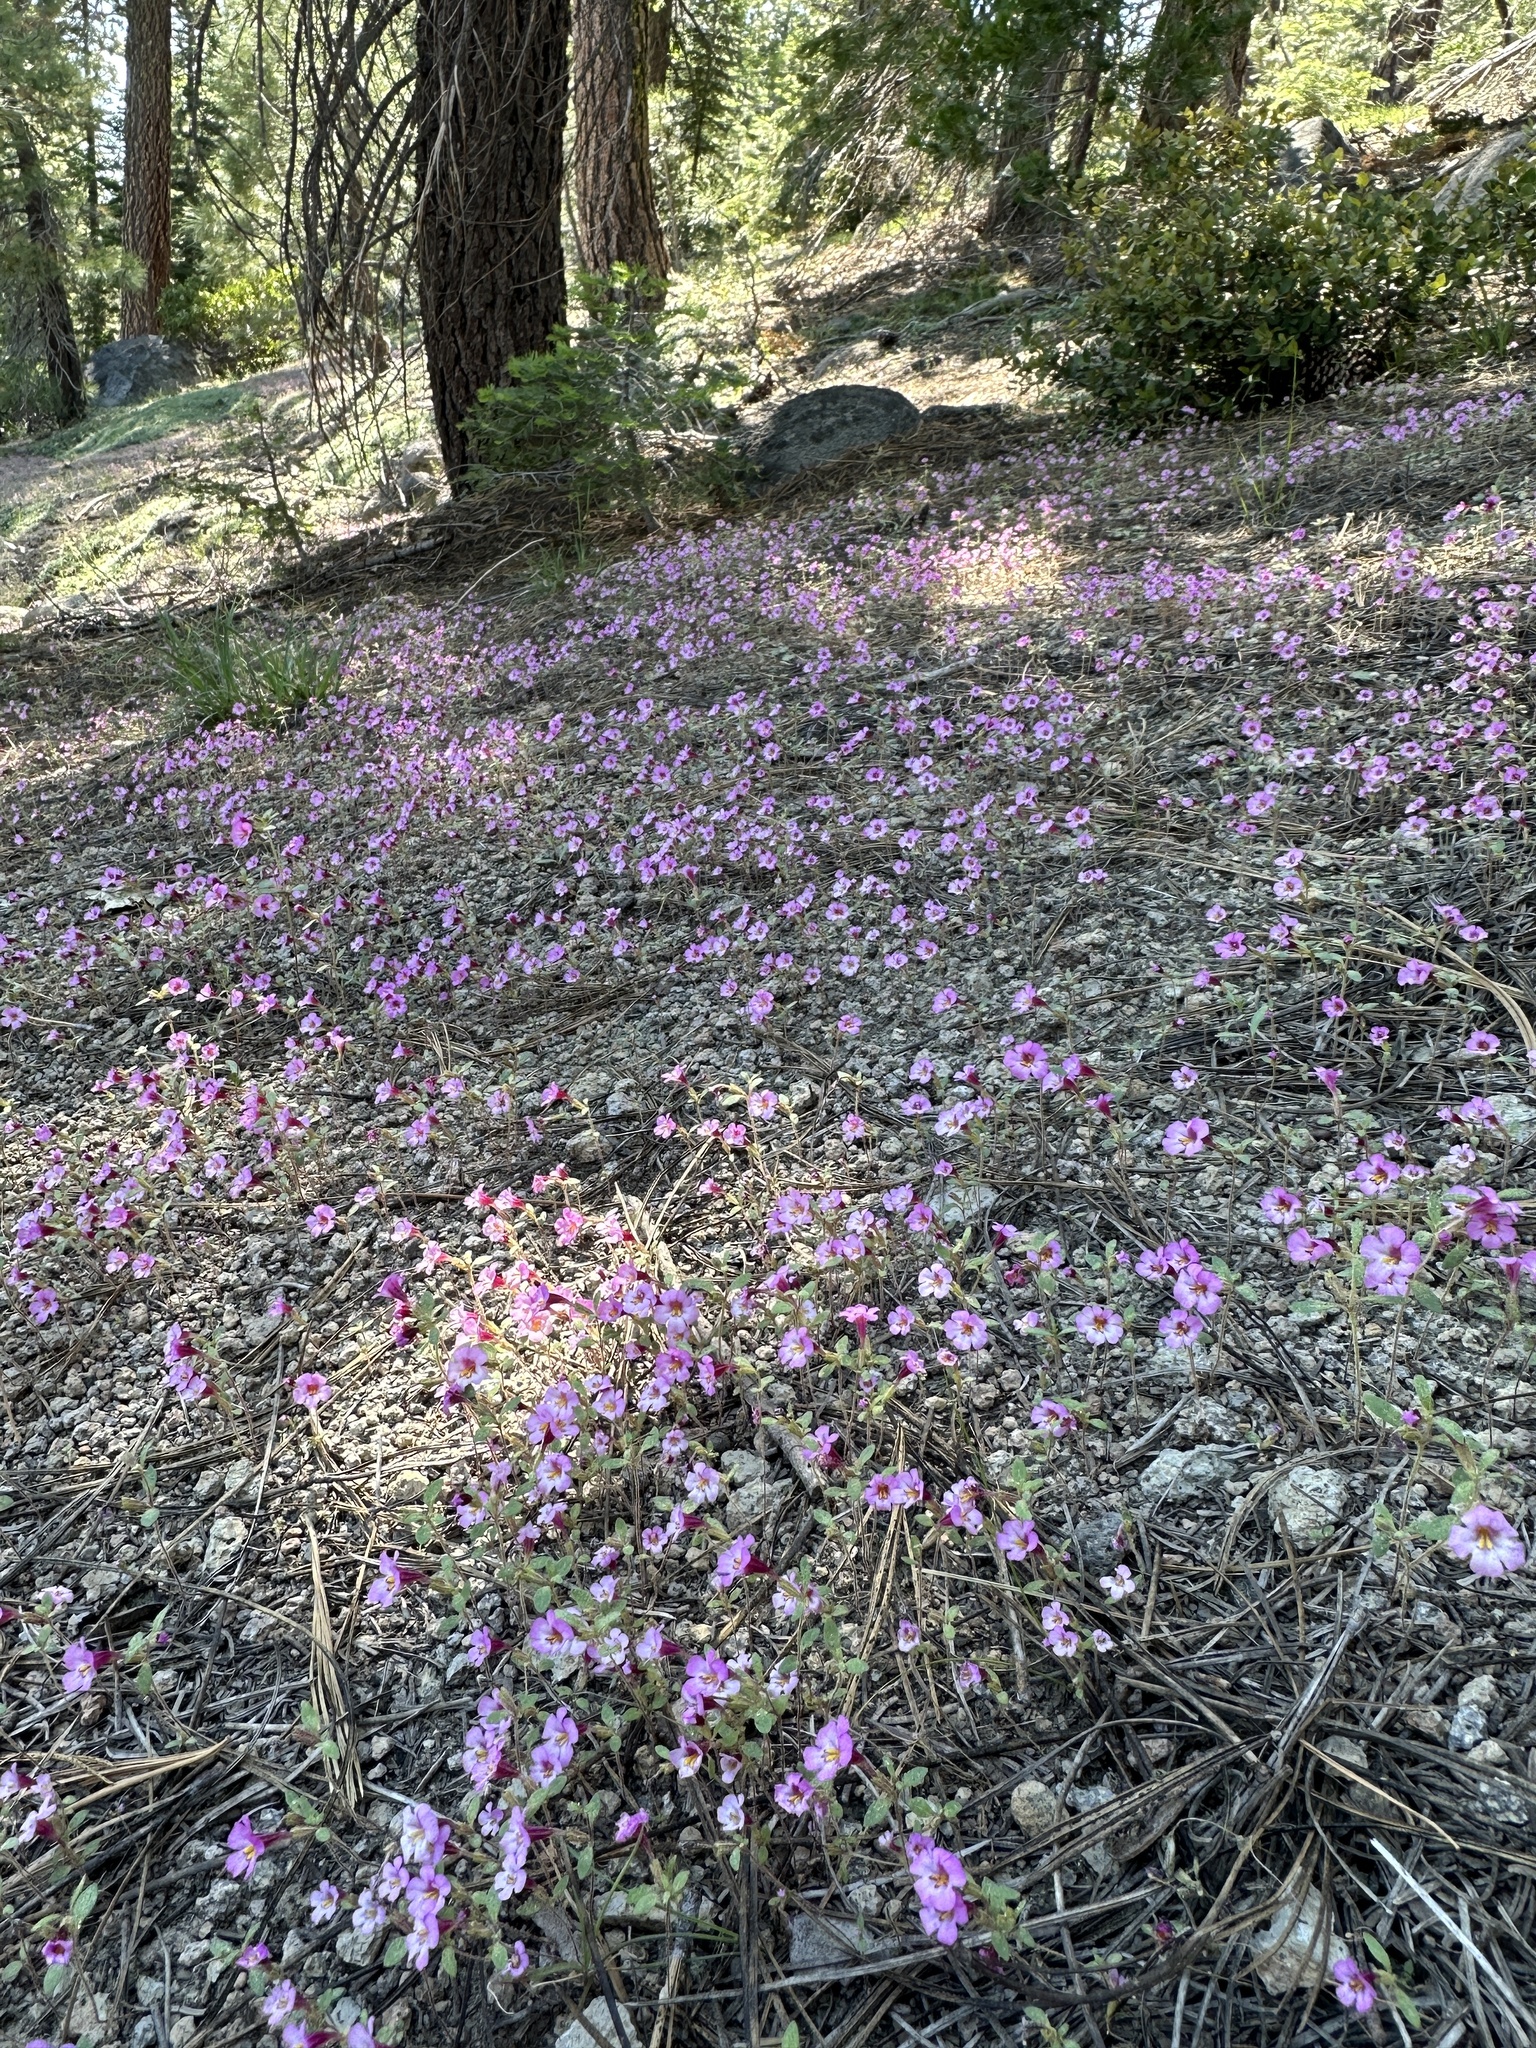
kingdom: Plantae
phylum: Tracheophyta
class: Magnoliopsida
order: Lamiales
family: Phrymaceae
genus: Diplacus
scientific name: Diplacus torreyi
